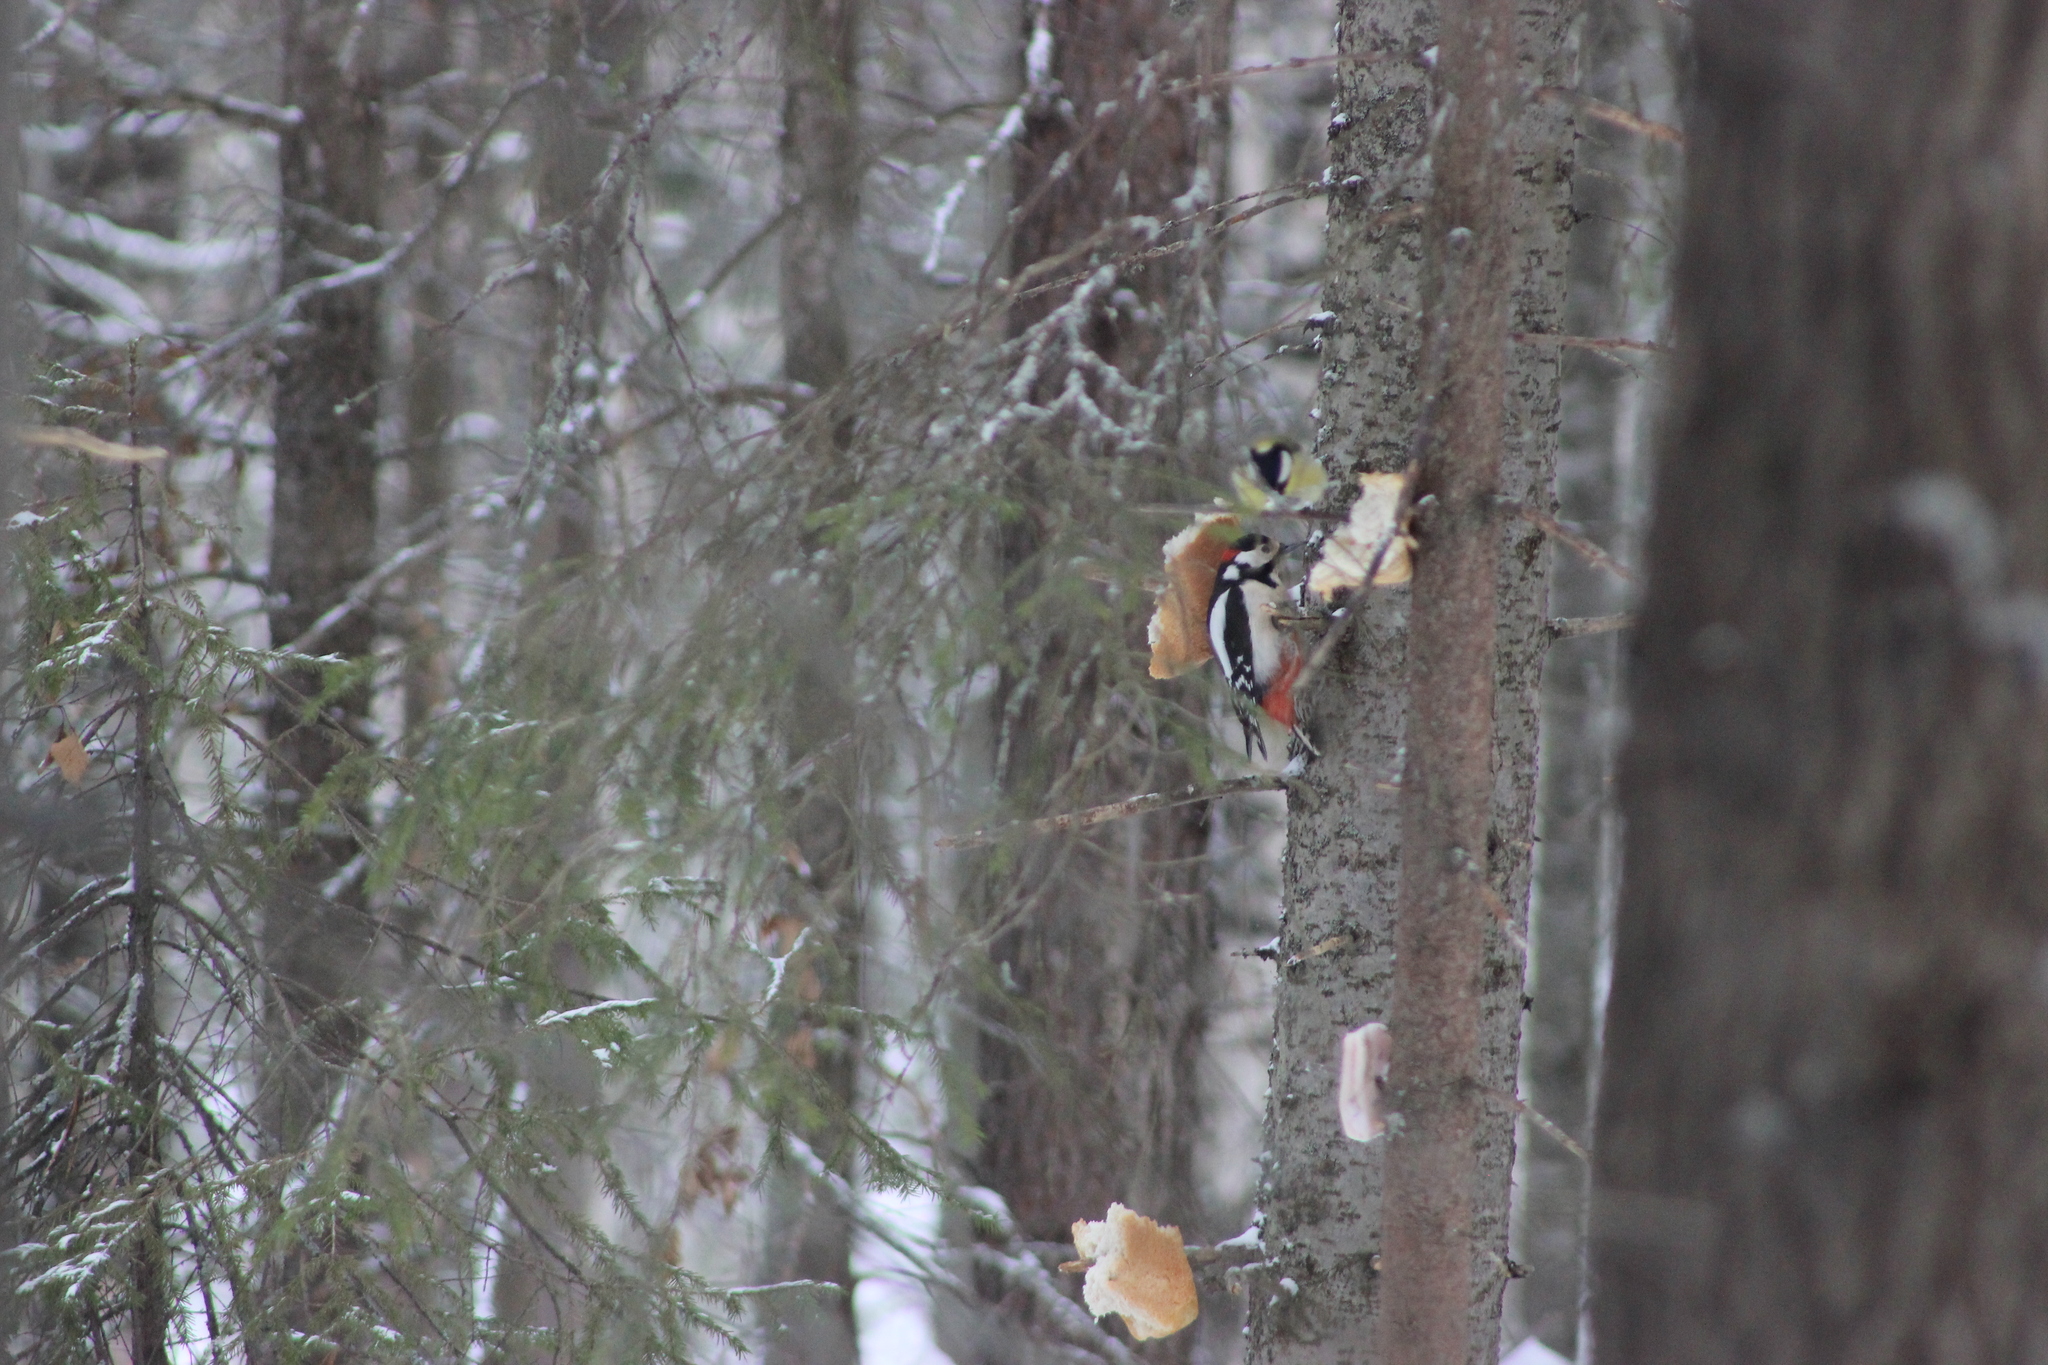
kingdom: Animalia
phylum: Chordata
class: Aves
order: Piciformes
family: Picidae
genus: Dendrocopos
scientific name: Dendrocopos major
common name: Great spotted woodpecker
